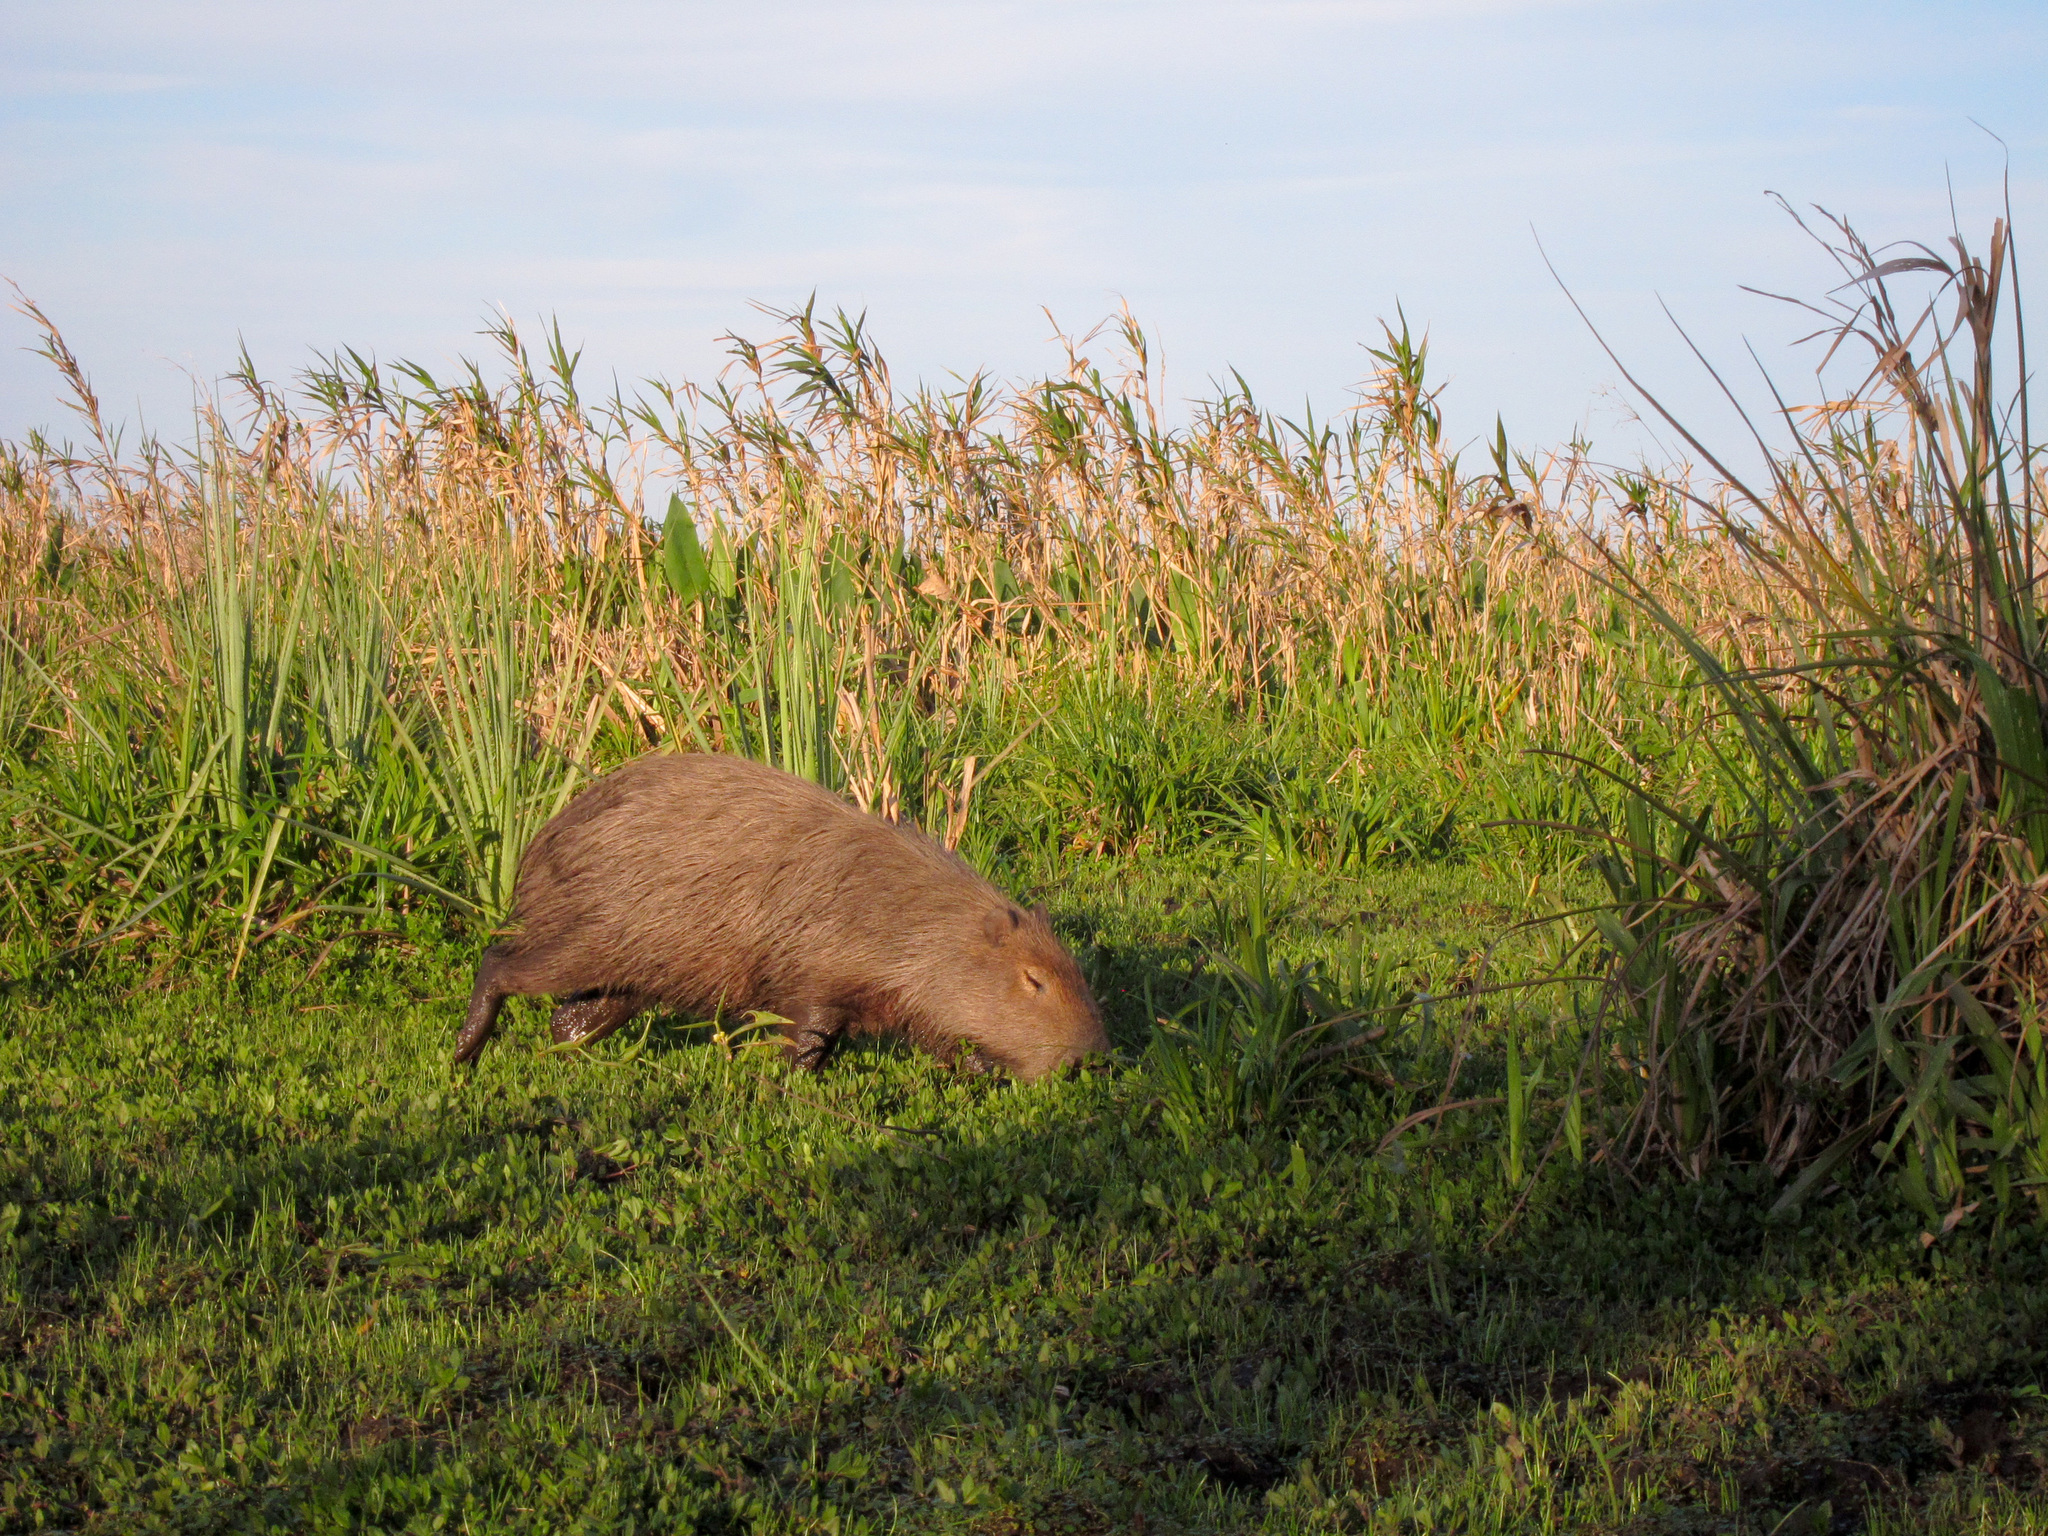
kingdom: Animalia
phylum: Chordata
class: Mammalia
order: Rodentia
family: Caviidae
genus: Hydrochoerus
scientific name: Hydrochoerus hydrochaeris
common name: Capybara
